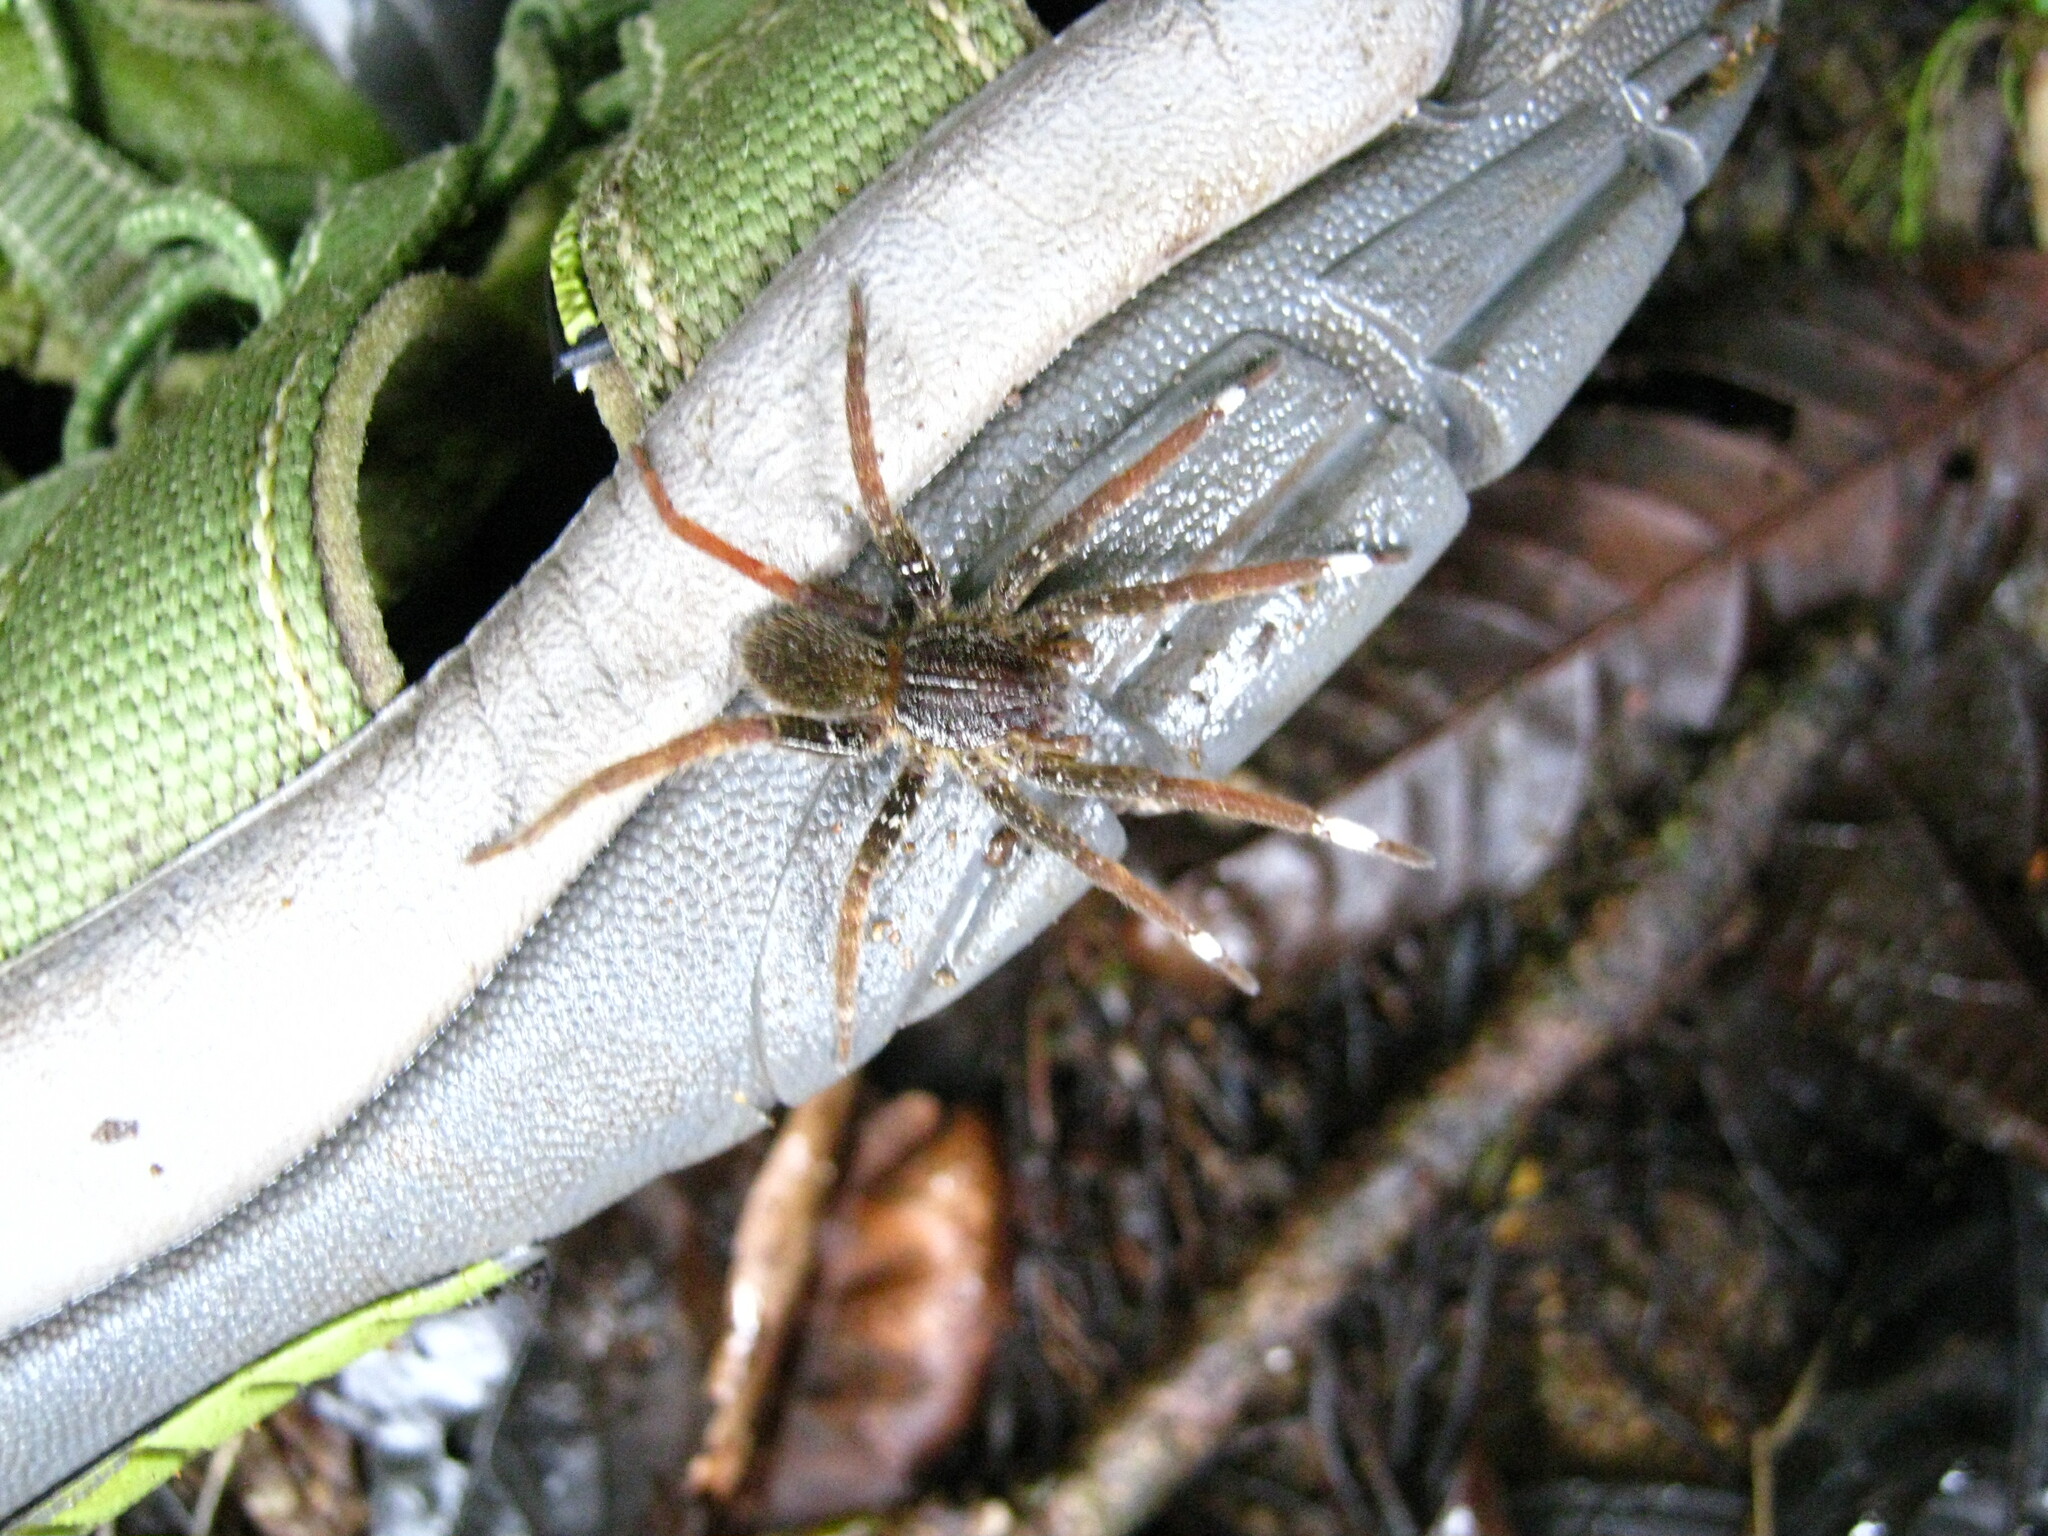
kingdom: Animalia
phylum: Arthropoda
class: Arachnida
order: Araneae
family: Ctenidae
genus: Ancylometes
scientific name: Ancylometes bogotensis
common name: Wandering spiders
